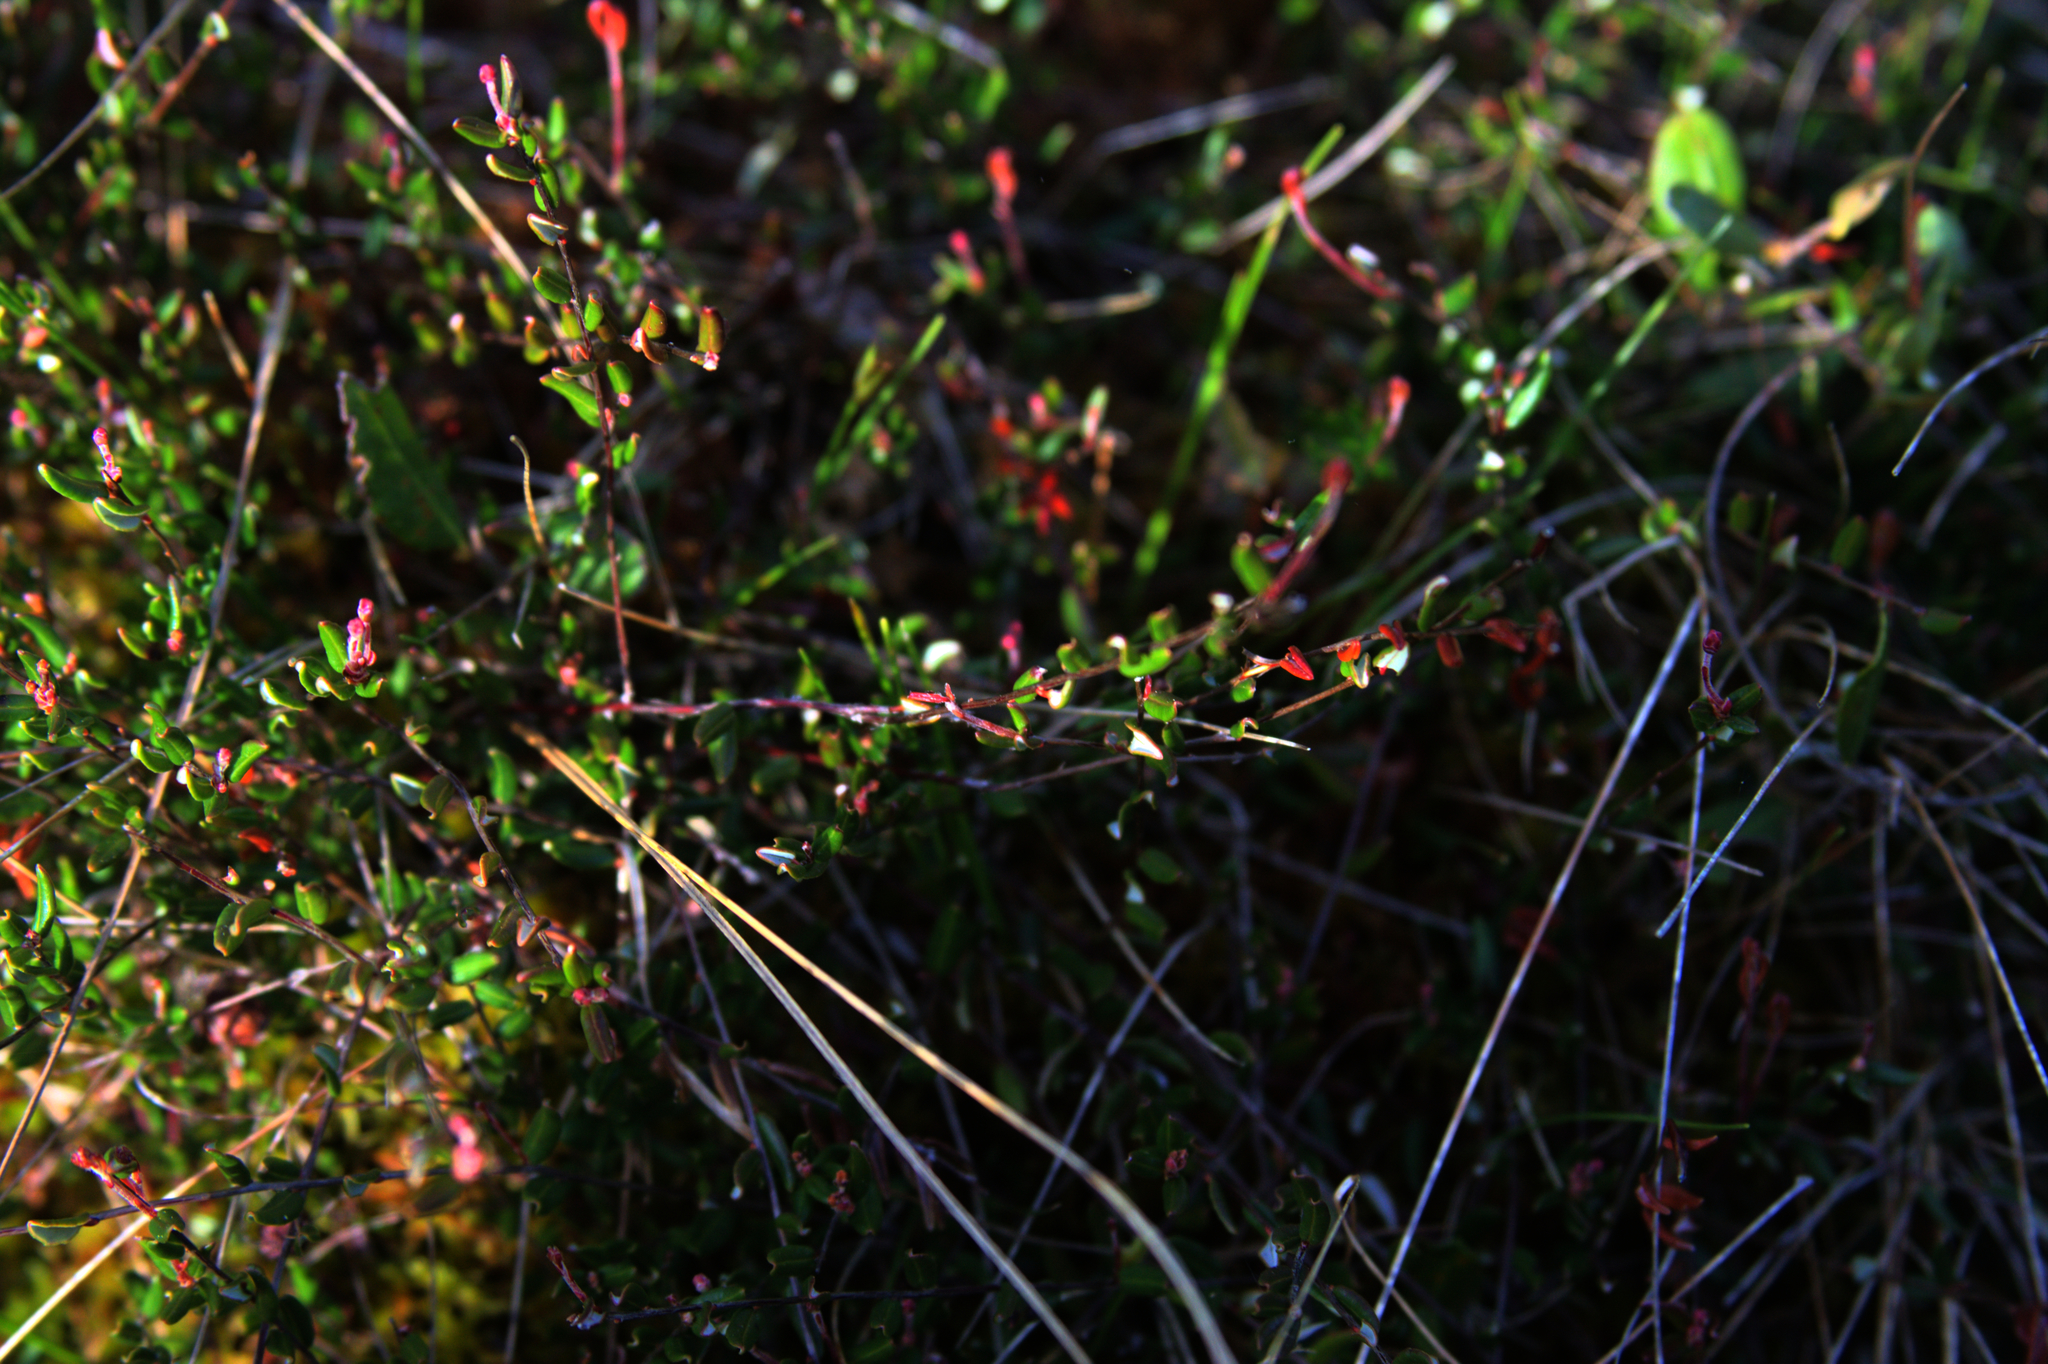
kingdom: Plantae
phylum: Tracheophyta
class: Magnoliopsida
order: Ericales
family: Ericaceae
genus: Vaccinium
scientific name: Vaccinium oxycoccos
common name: Cranberry
